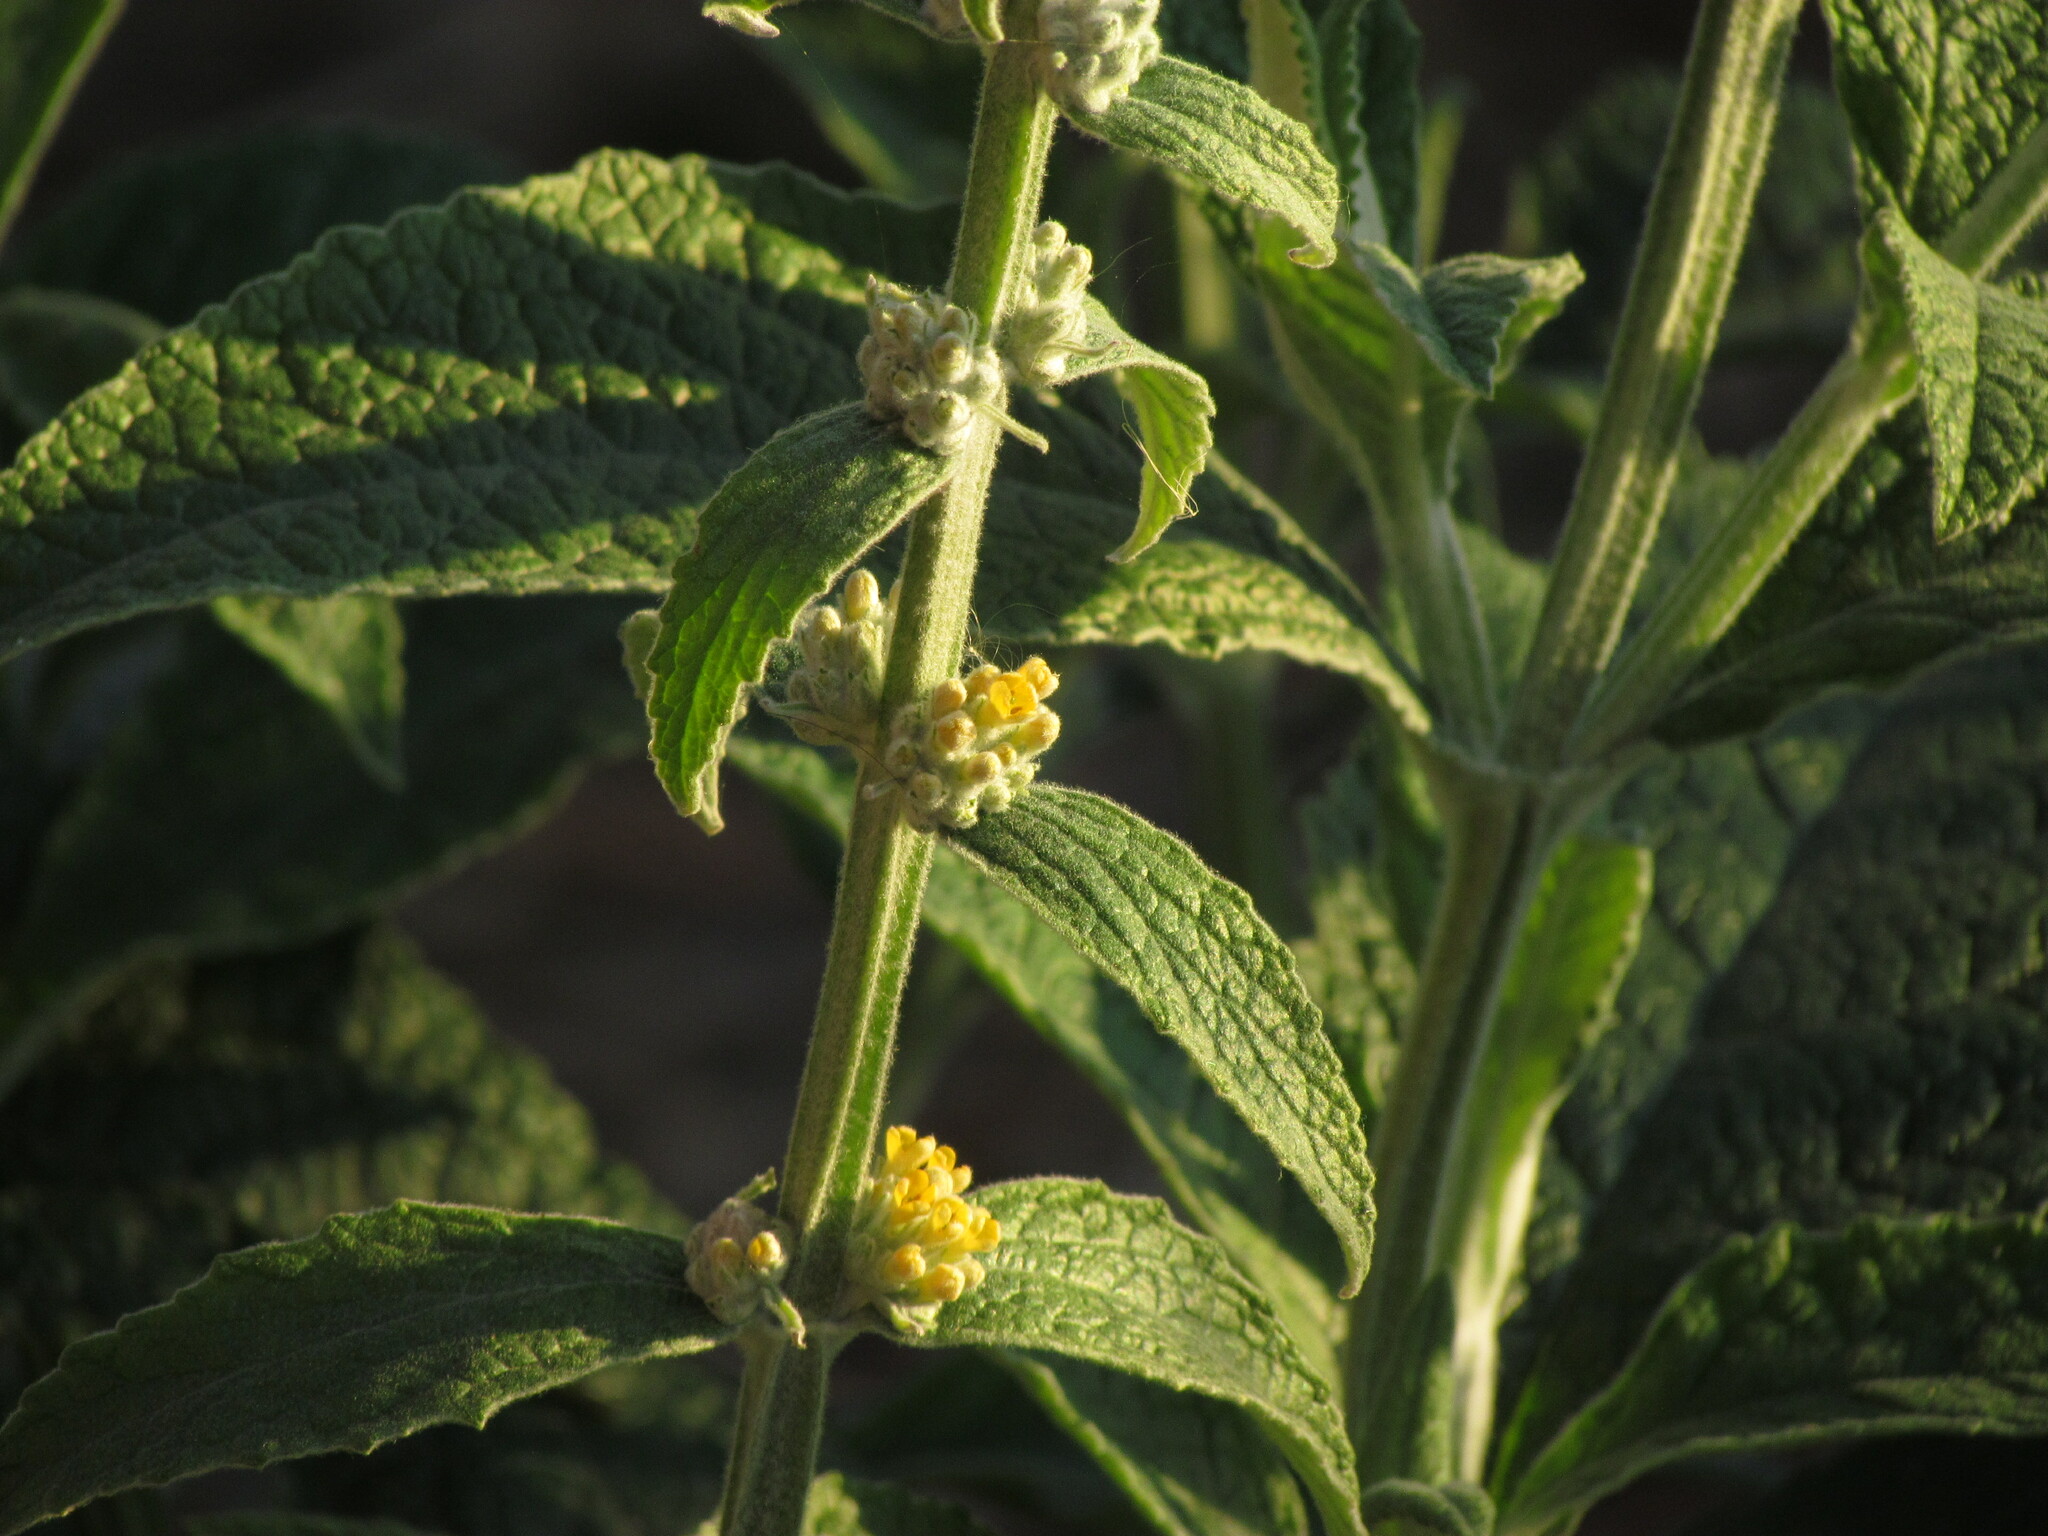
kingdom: Plantae
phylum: Tracheophyta
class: Magnoliopsida
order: Lamiales
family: Scrophulariaceae
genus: Buddleja
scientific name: Buddleja stachyoides
